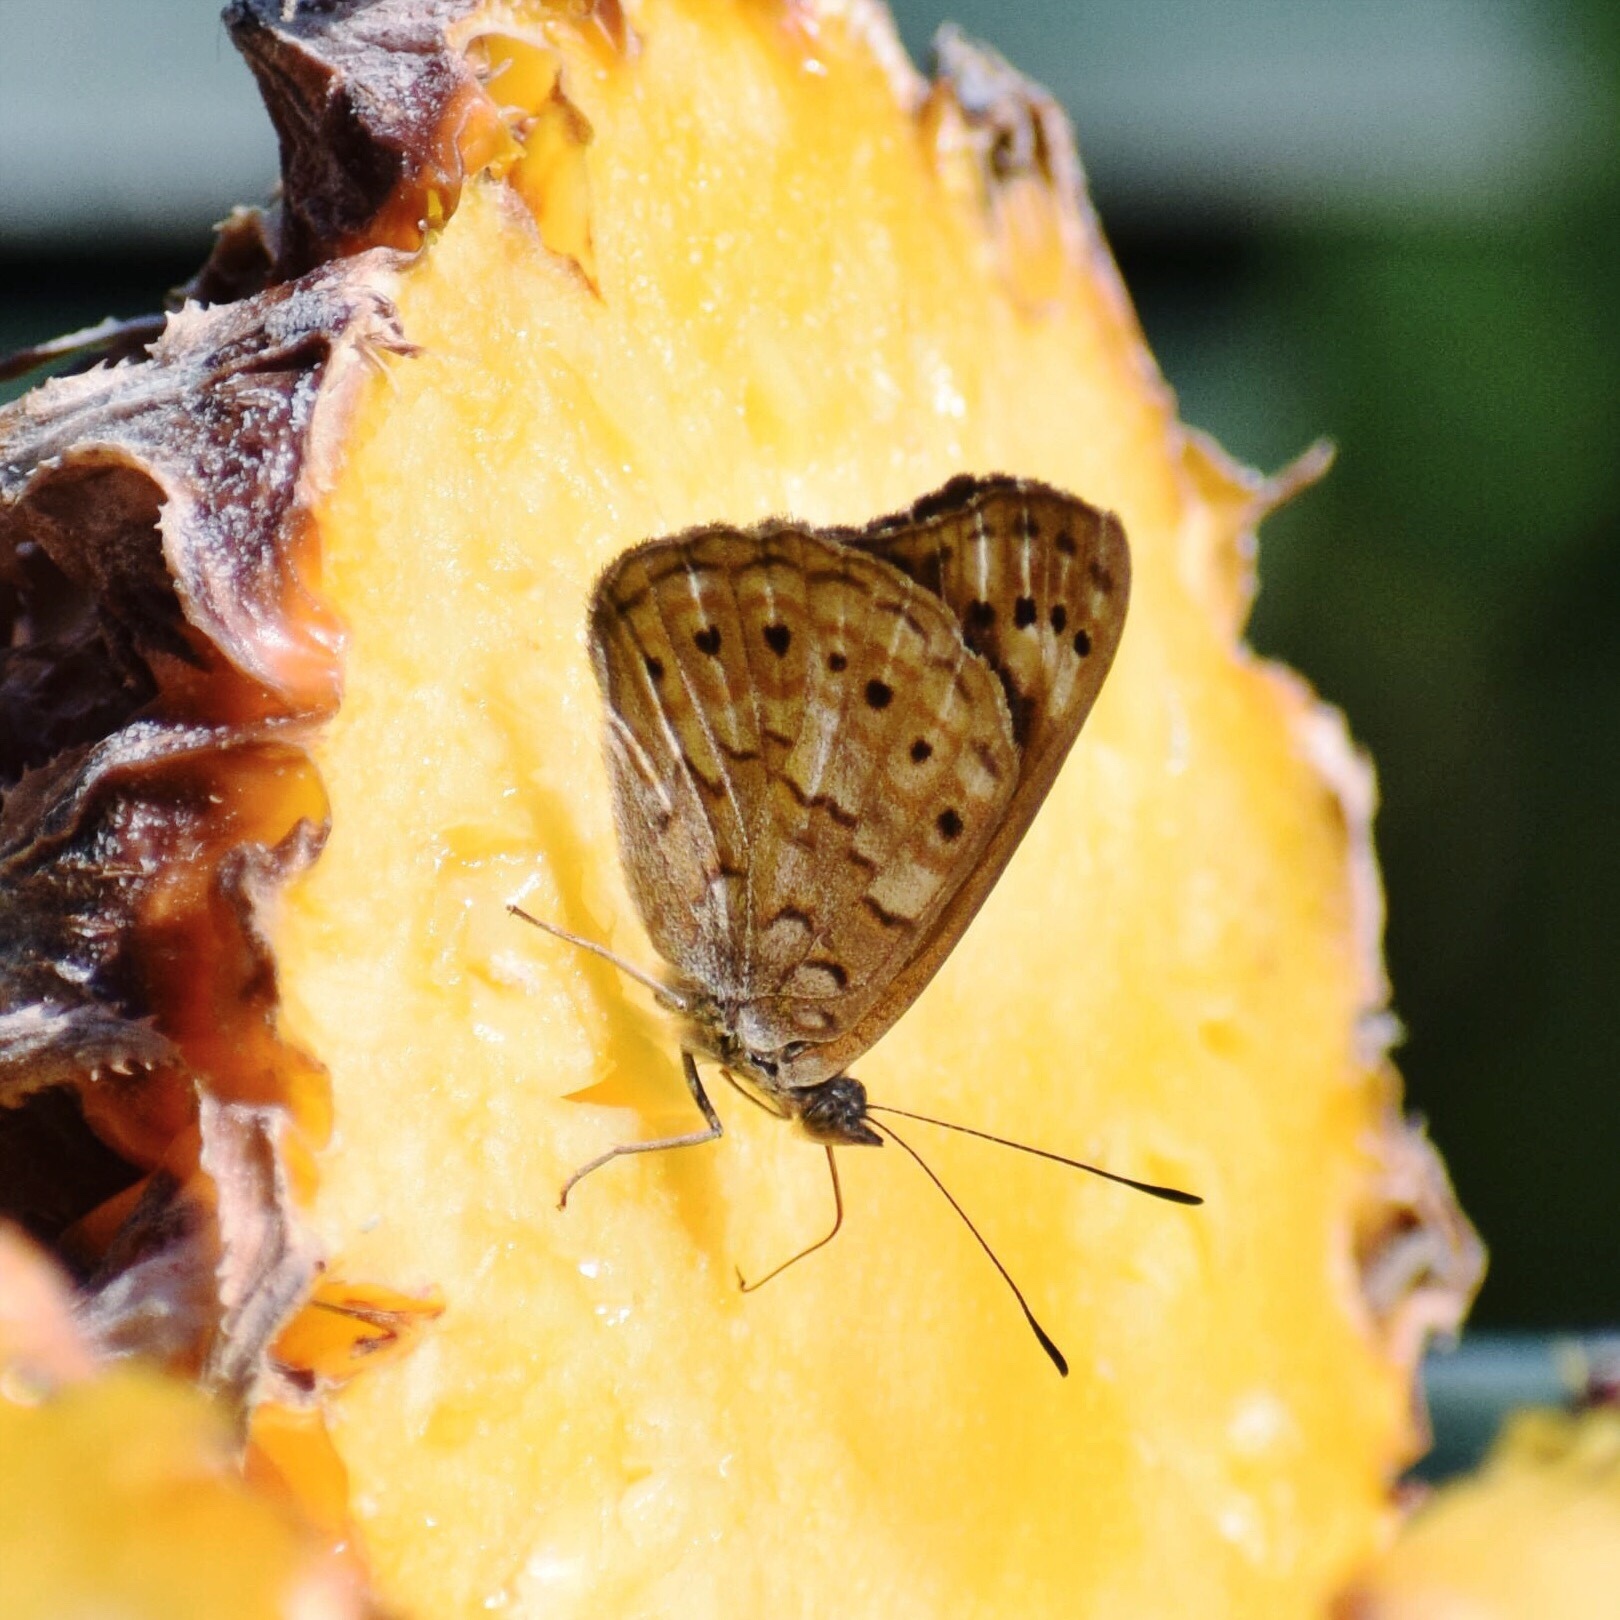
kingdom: Animalia
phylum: Arthropoda
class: Insecta
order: Lepidoptera
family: Nymphalidae
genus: Asterope
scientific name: Asterope boisduvali
